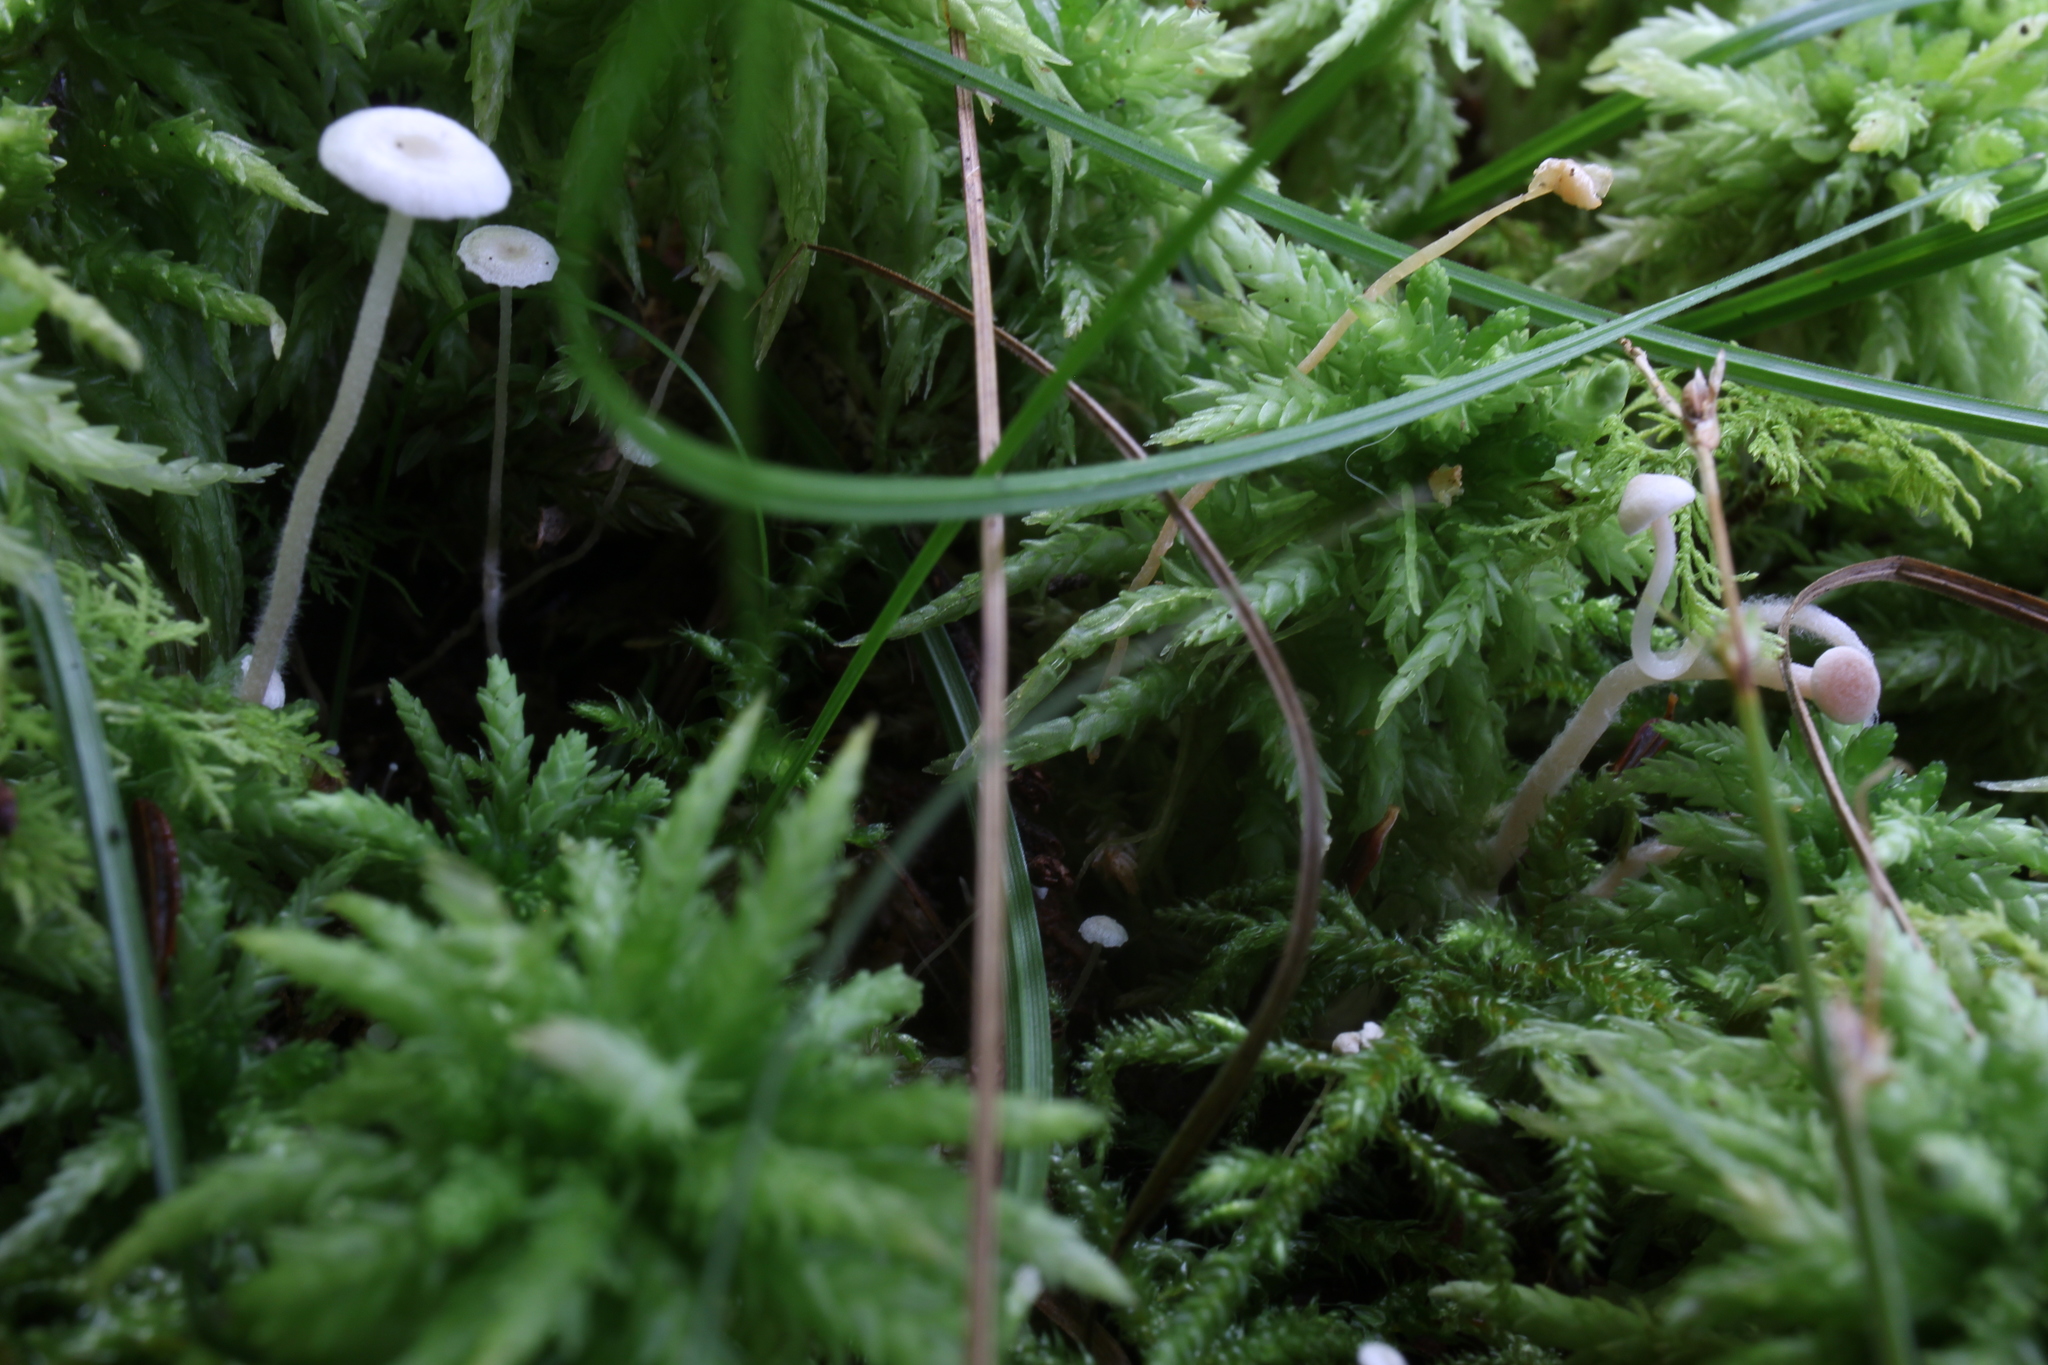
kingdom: Fungi
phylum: Basidiomycota
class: Agaricomycetes
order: Agaricales
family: Tricholomataceae
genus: Collybia
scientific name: Collybia cookei
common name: Splitpea shanklet
